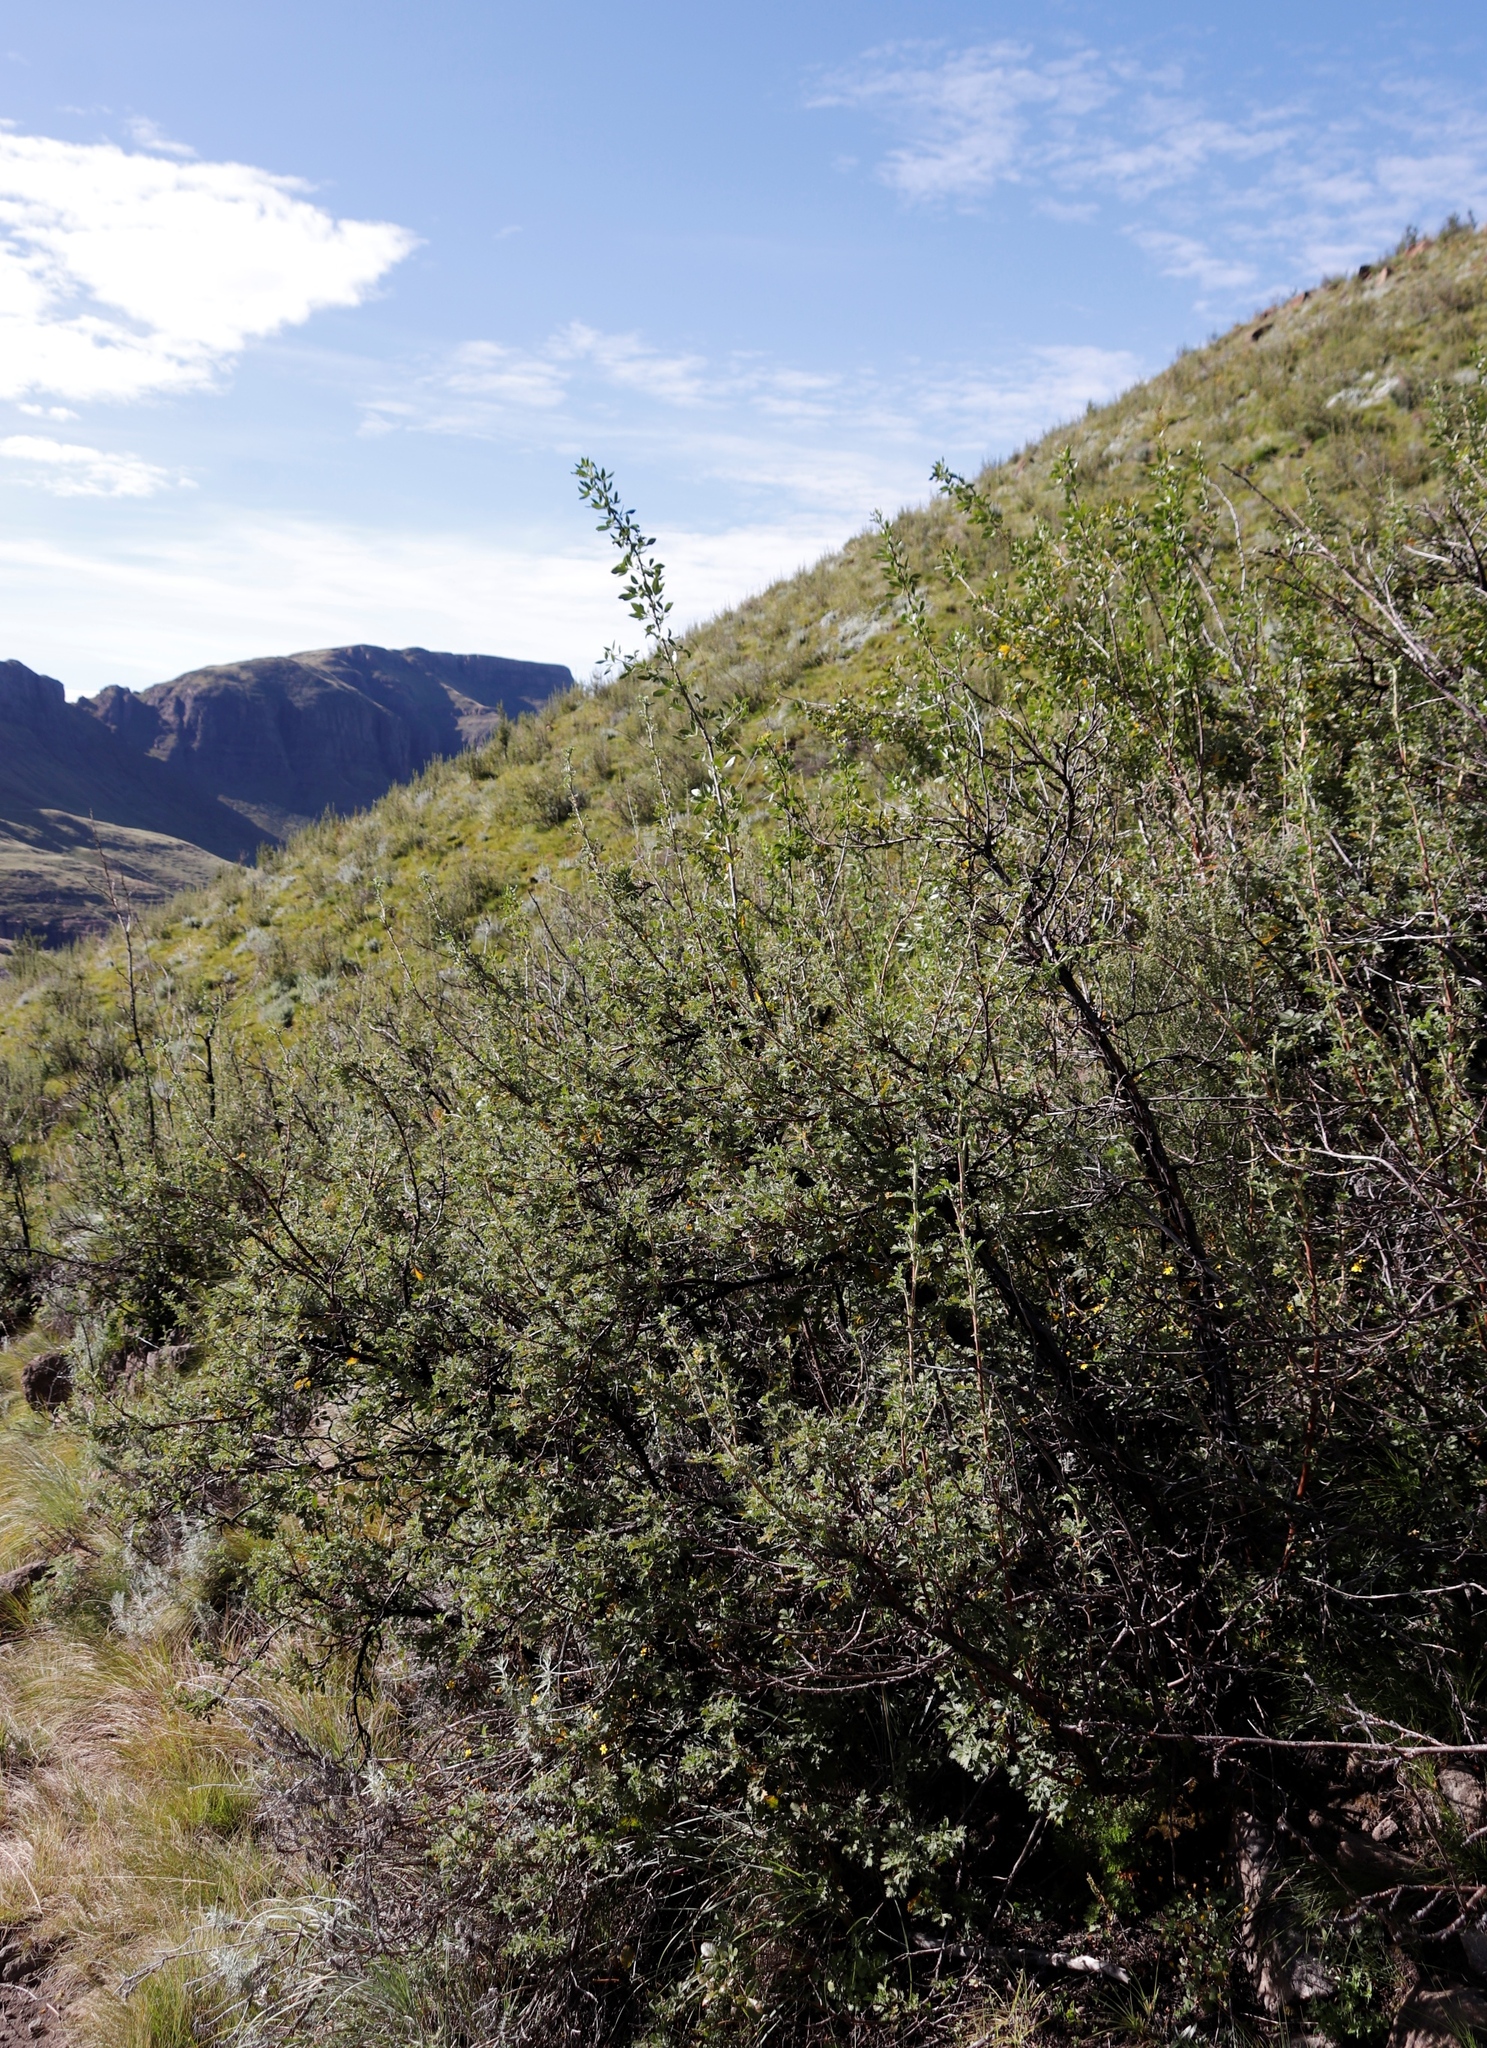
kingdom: Plantae
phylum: Tracheophyta
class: Magnoliopsida
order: Rosales
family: Rosaceae
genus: Leucosidea
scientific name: Leucosidea sericea
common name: Oldwood
